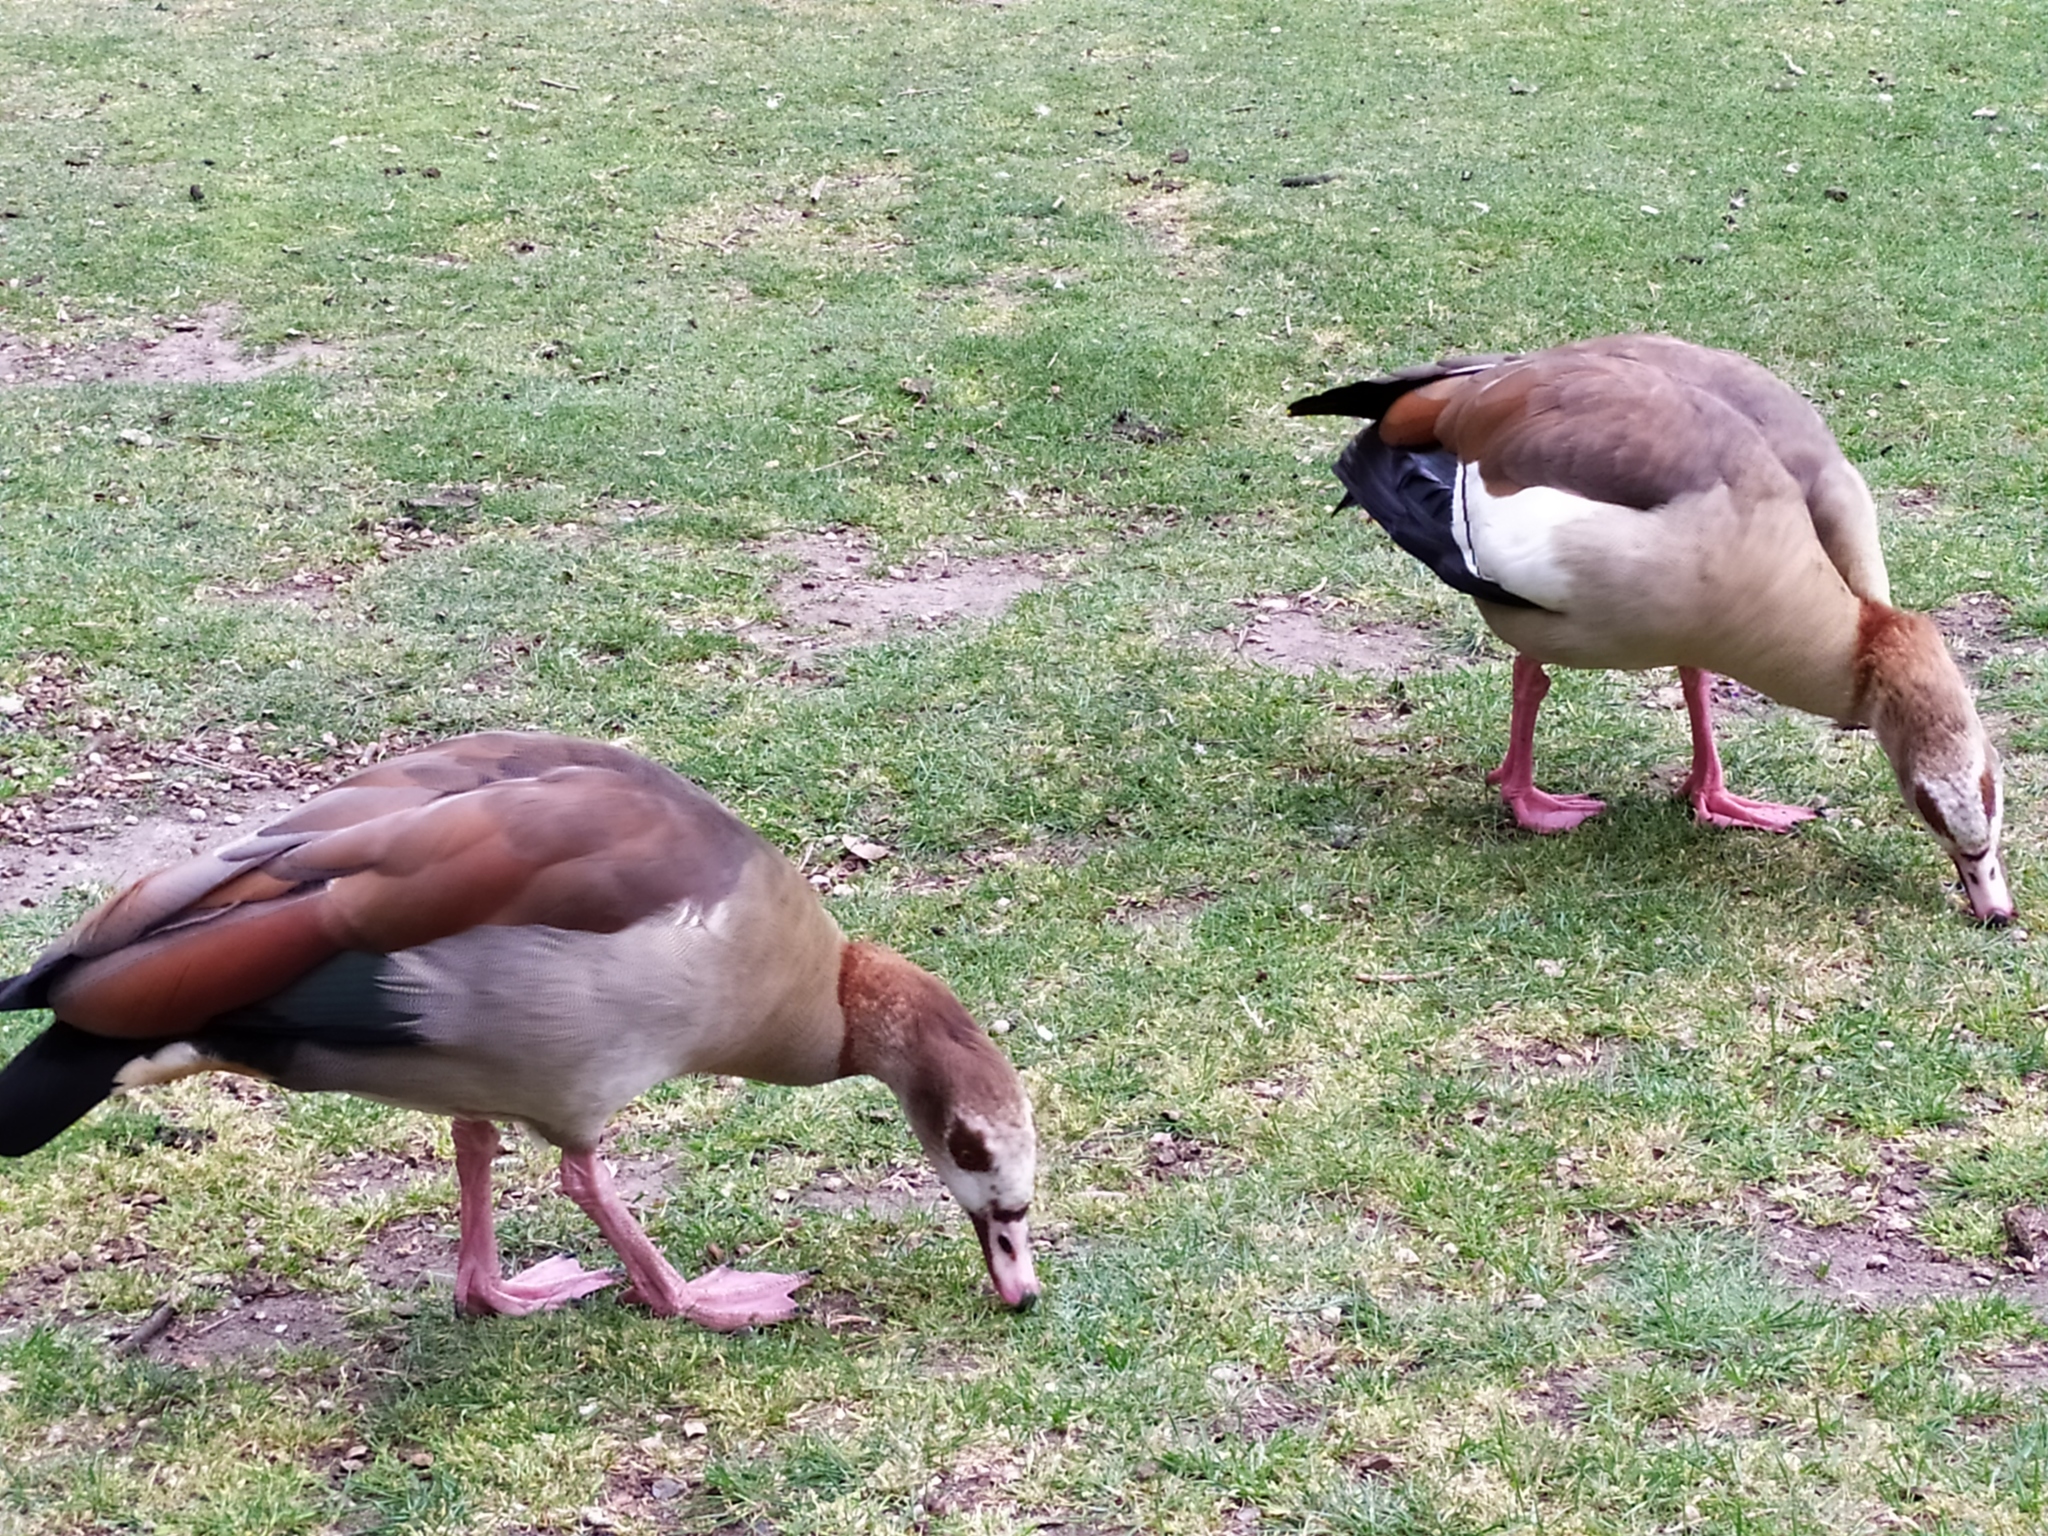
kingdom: Animalia
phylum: Chordata
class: Aves
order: Anseriformes
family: Anatidae
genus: Alopochen
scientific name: Alopochen aegyptiaca
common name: Egyptian goose
